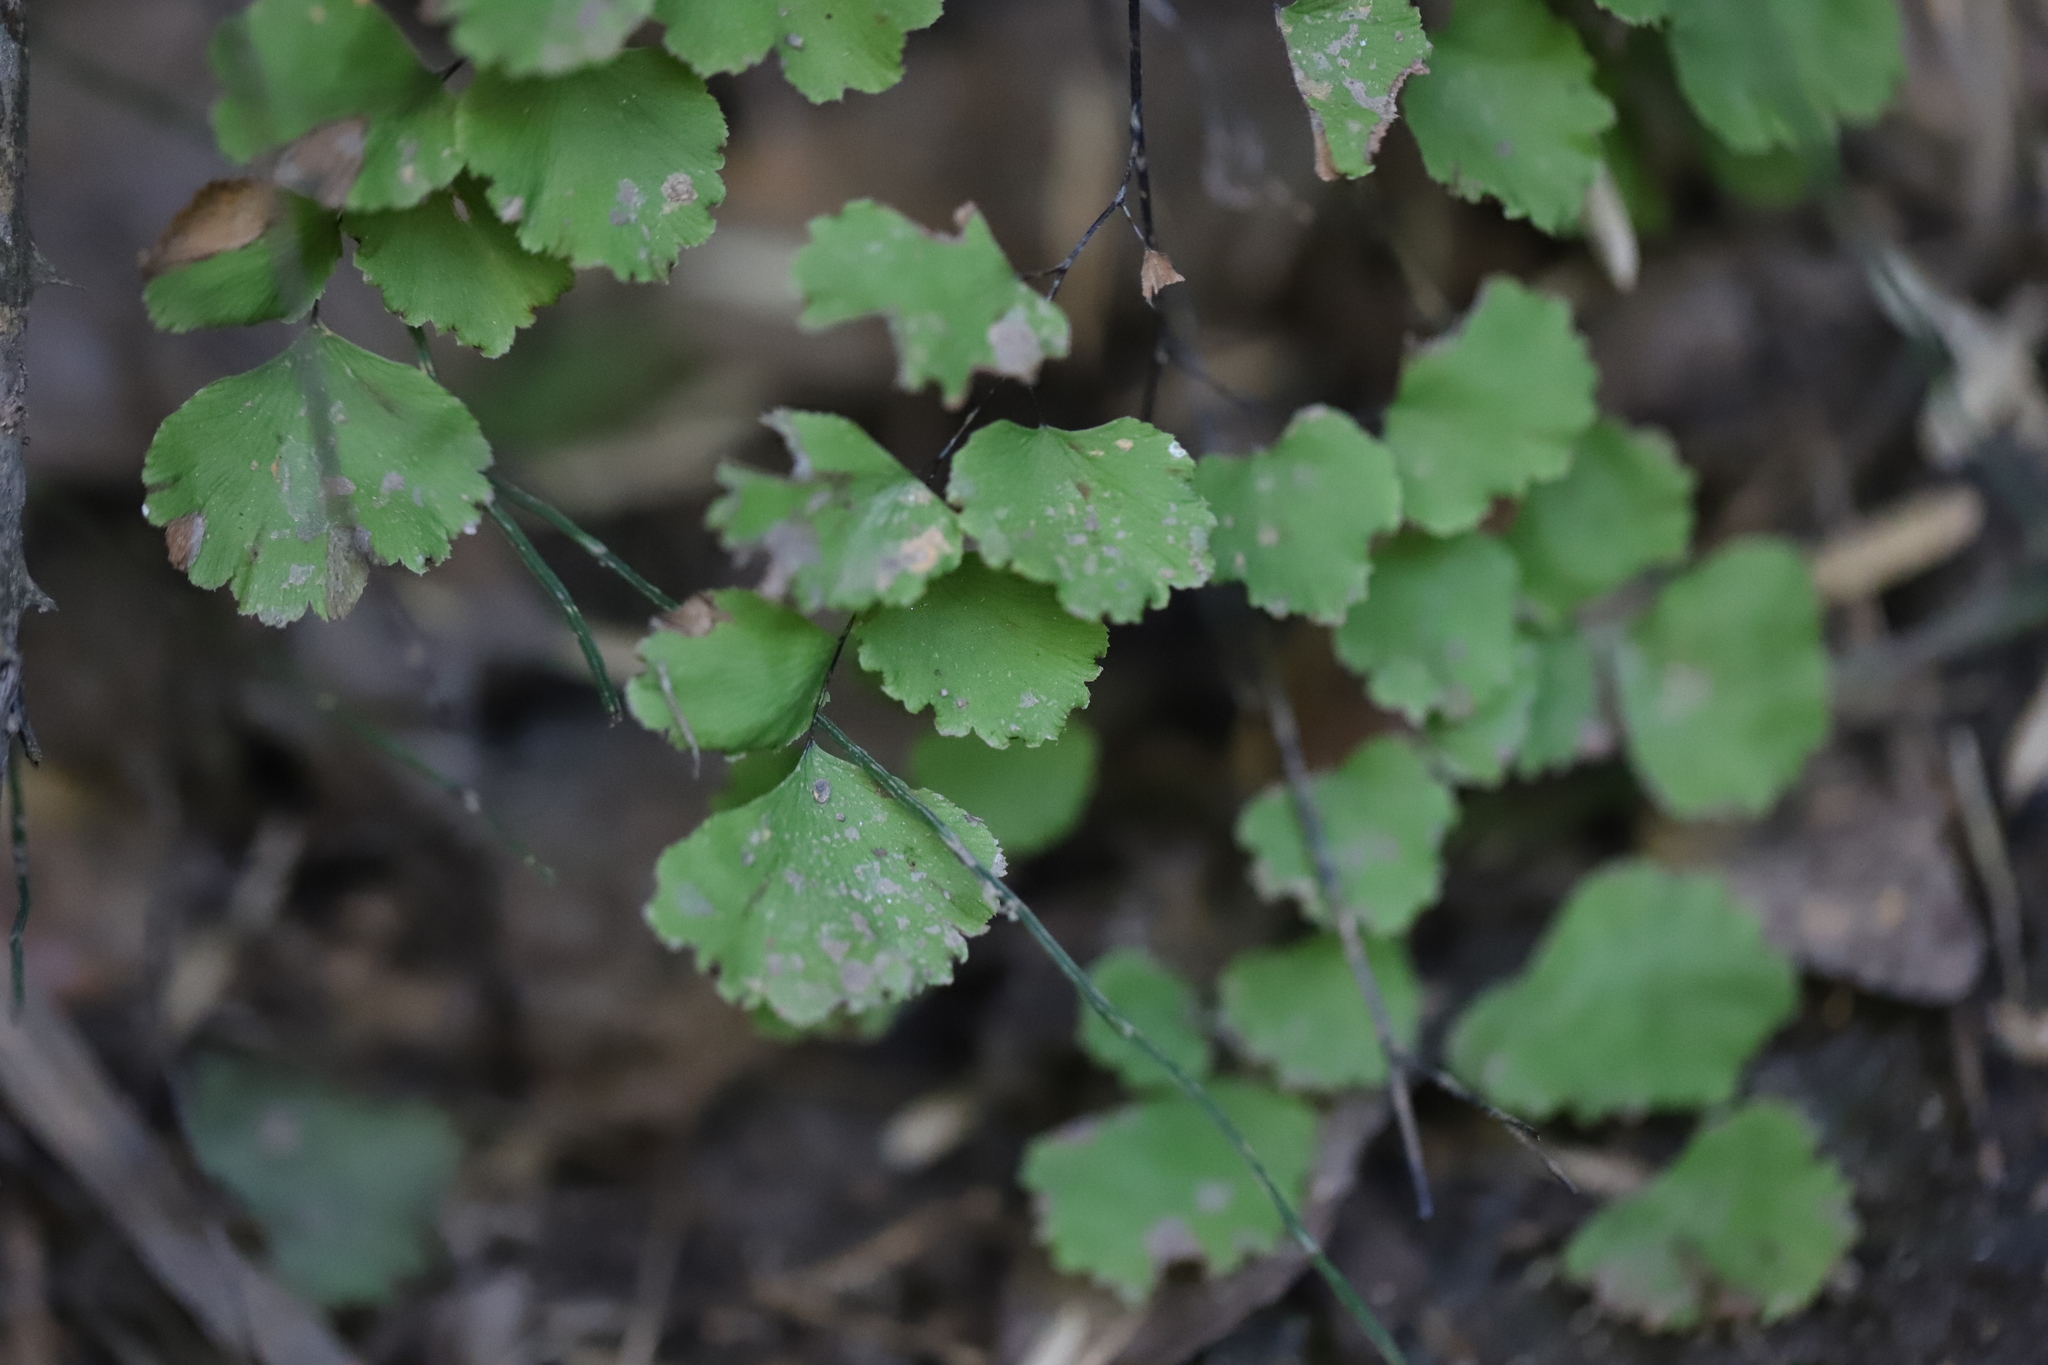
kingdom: Plantae
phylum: Tracheophyta
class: Polypodiopsida
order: Polypodiales
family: Pteridaceae
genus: Adiantum
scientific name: Adiantum chilense
